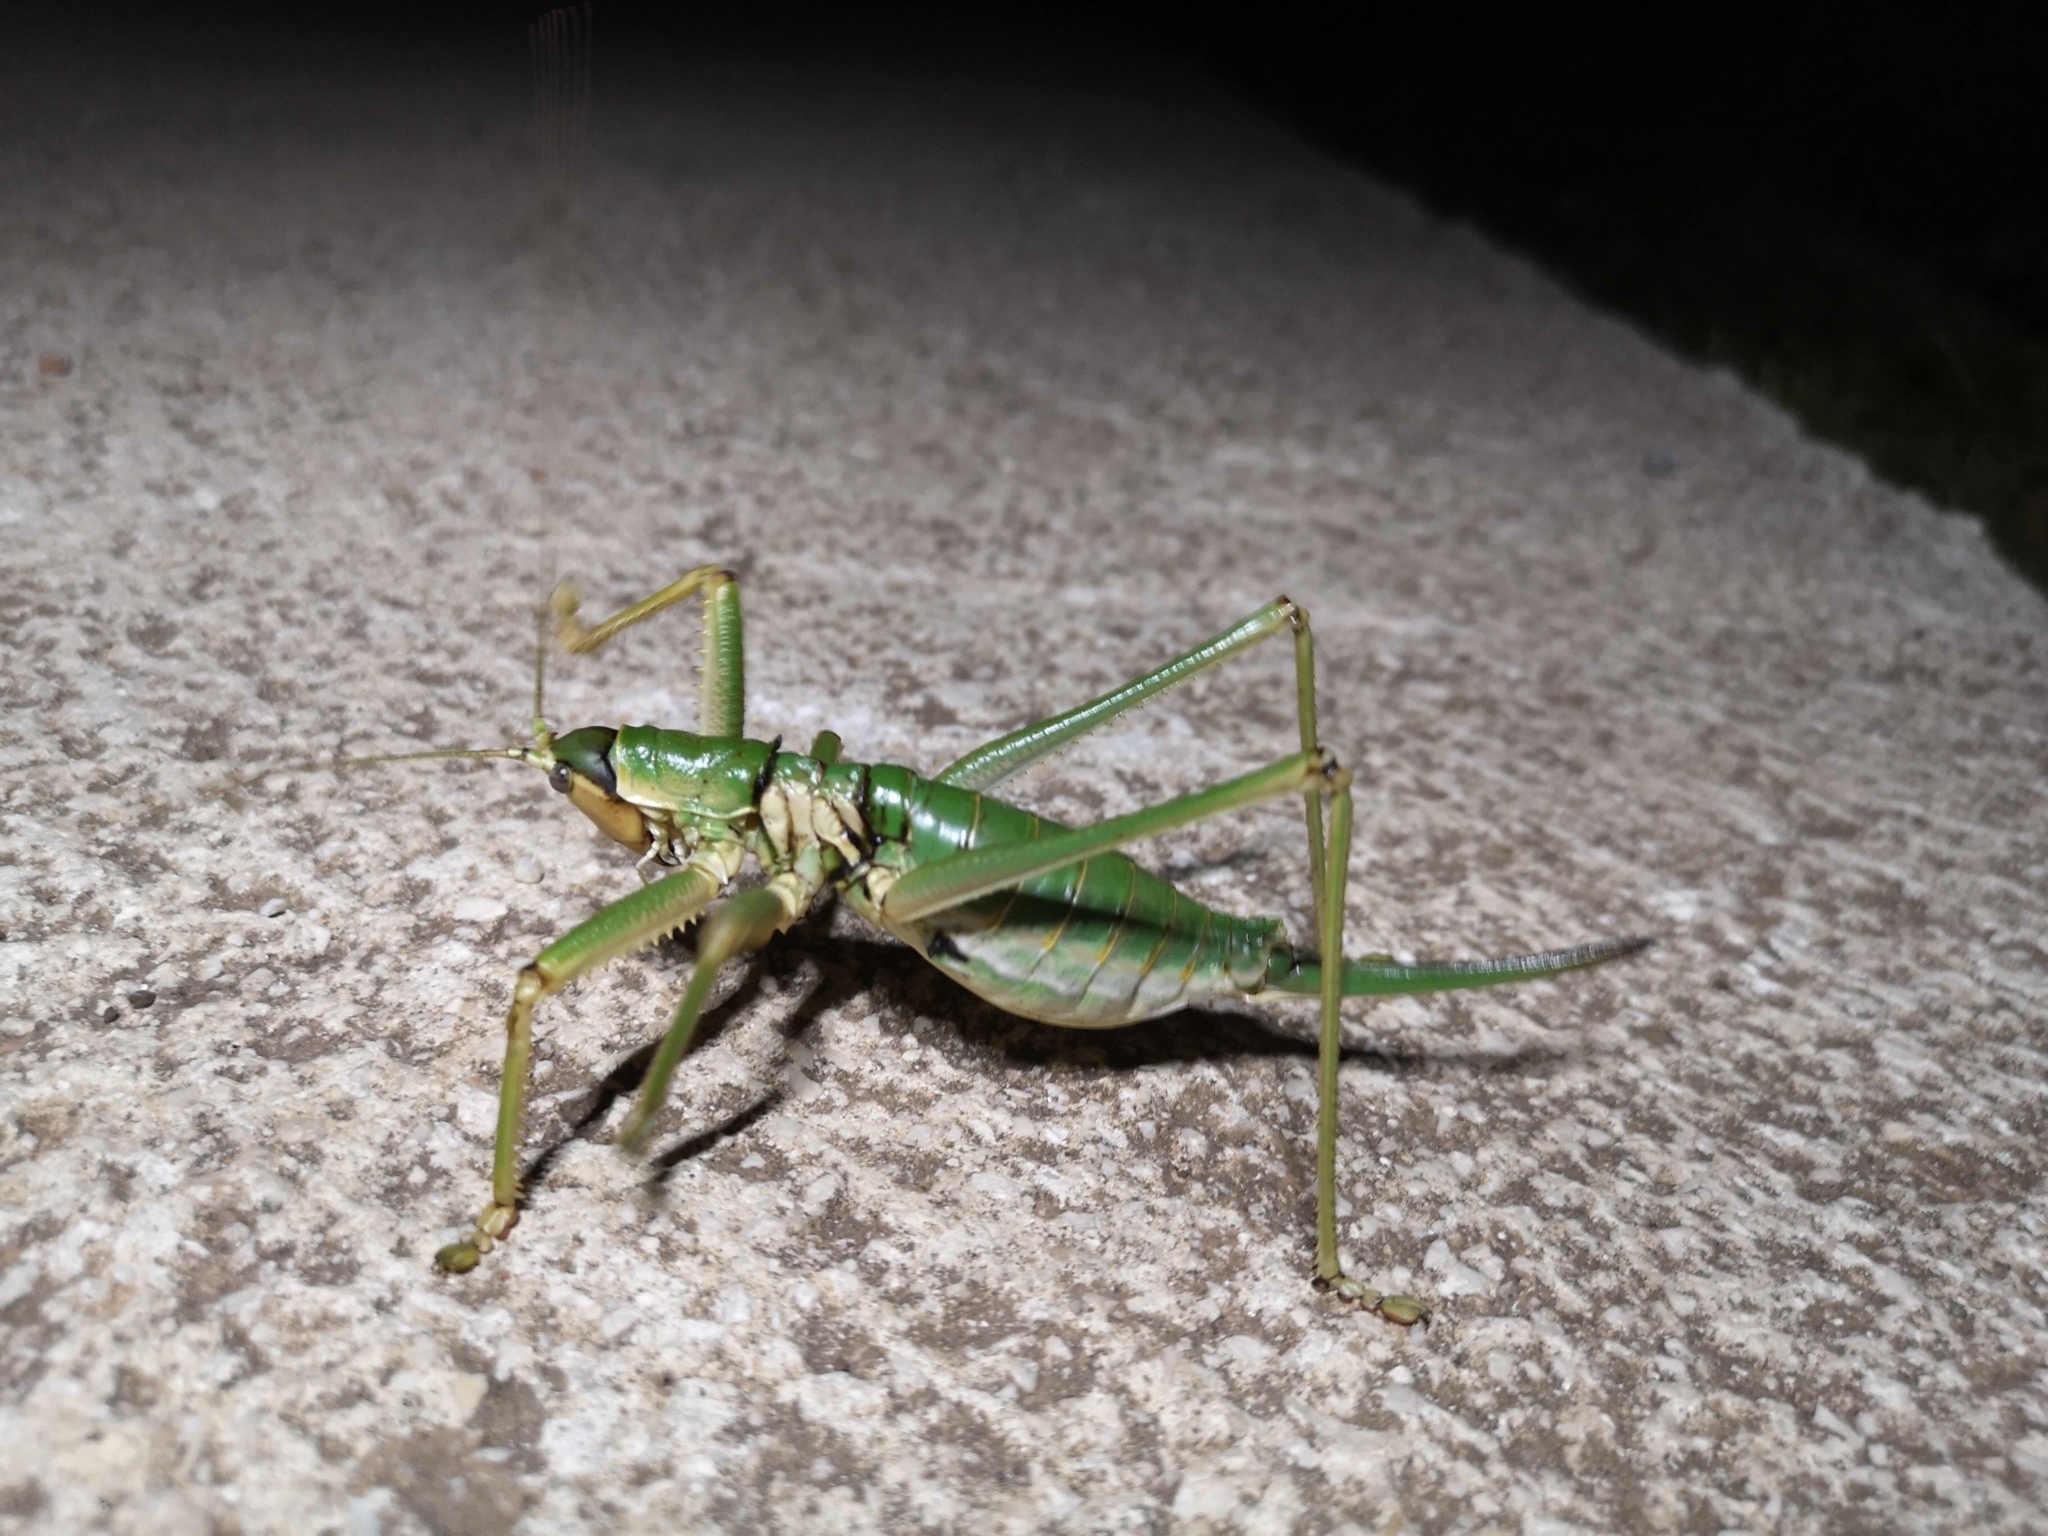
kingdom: Animalia
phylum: Arthropoda
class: Insecta
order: Orthoptera
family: Tettigoniidae
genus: Saga
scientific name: Saga natoliae
